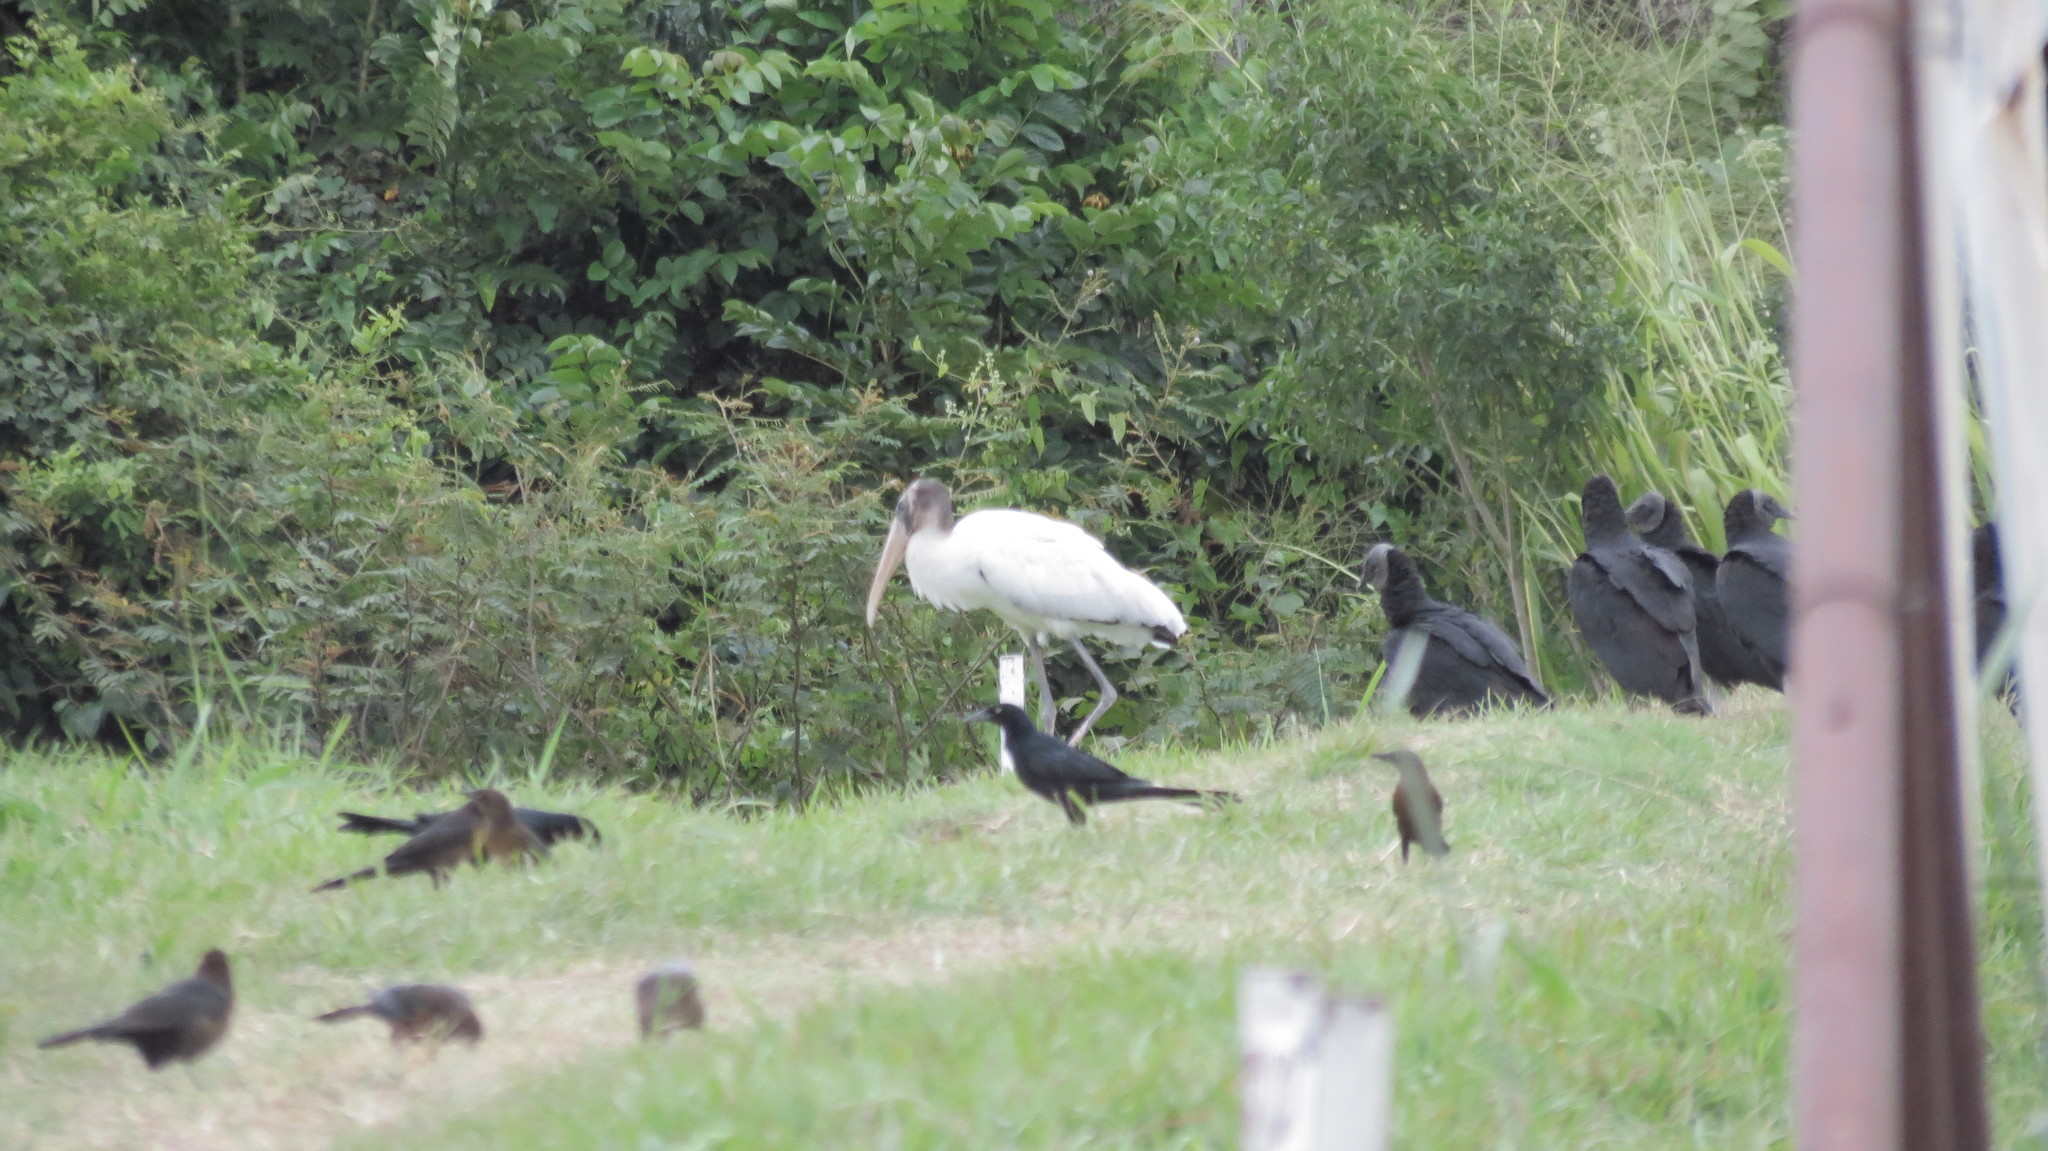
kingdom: Animalia
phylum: Chordata
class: Aves
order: Ciconiiformes
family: Ciconiidae
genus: Mycteria
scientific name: Mycteria americana
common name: Wood stork
